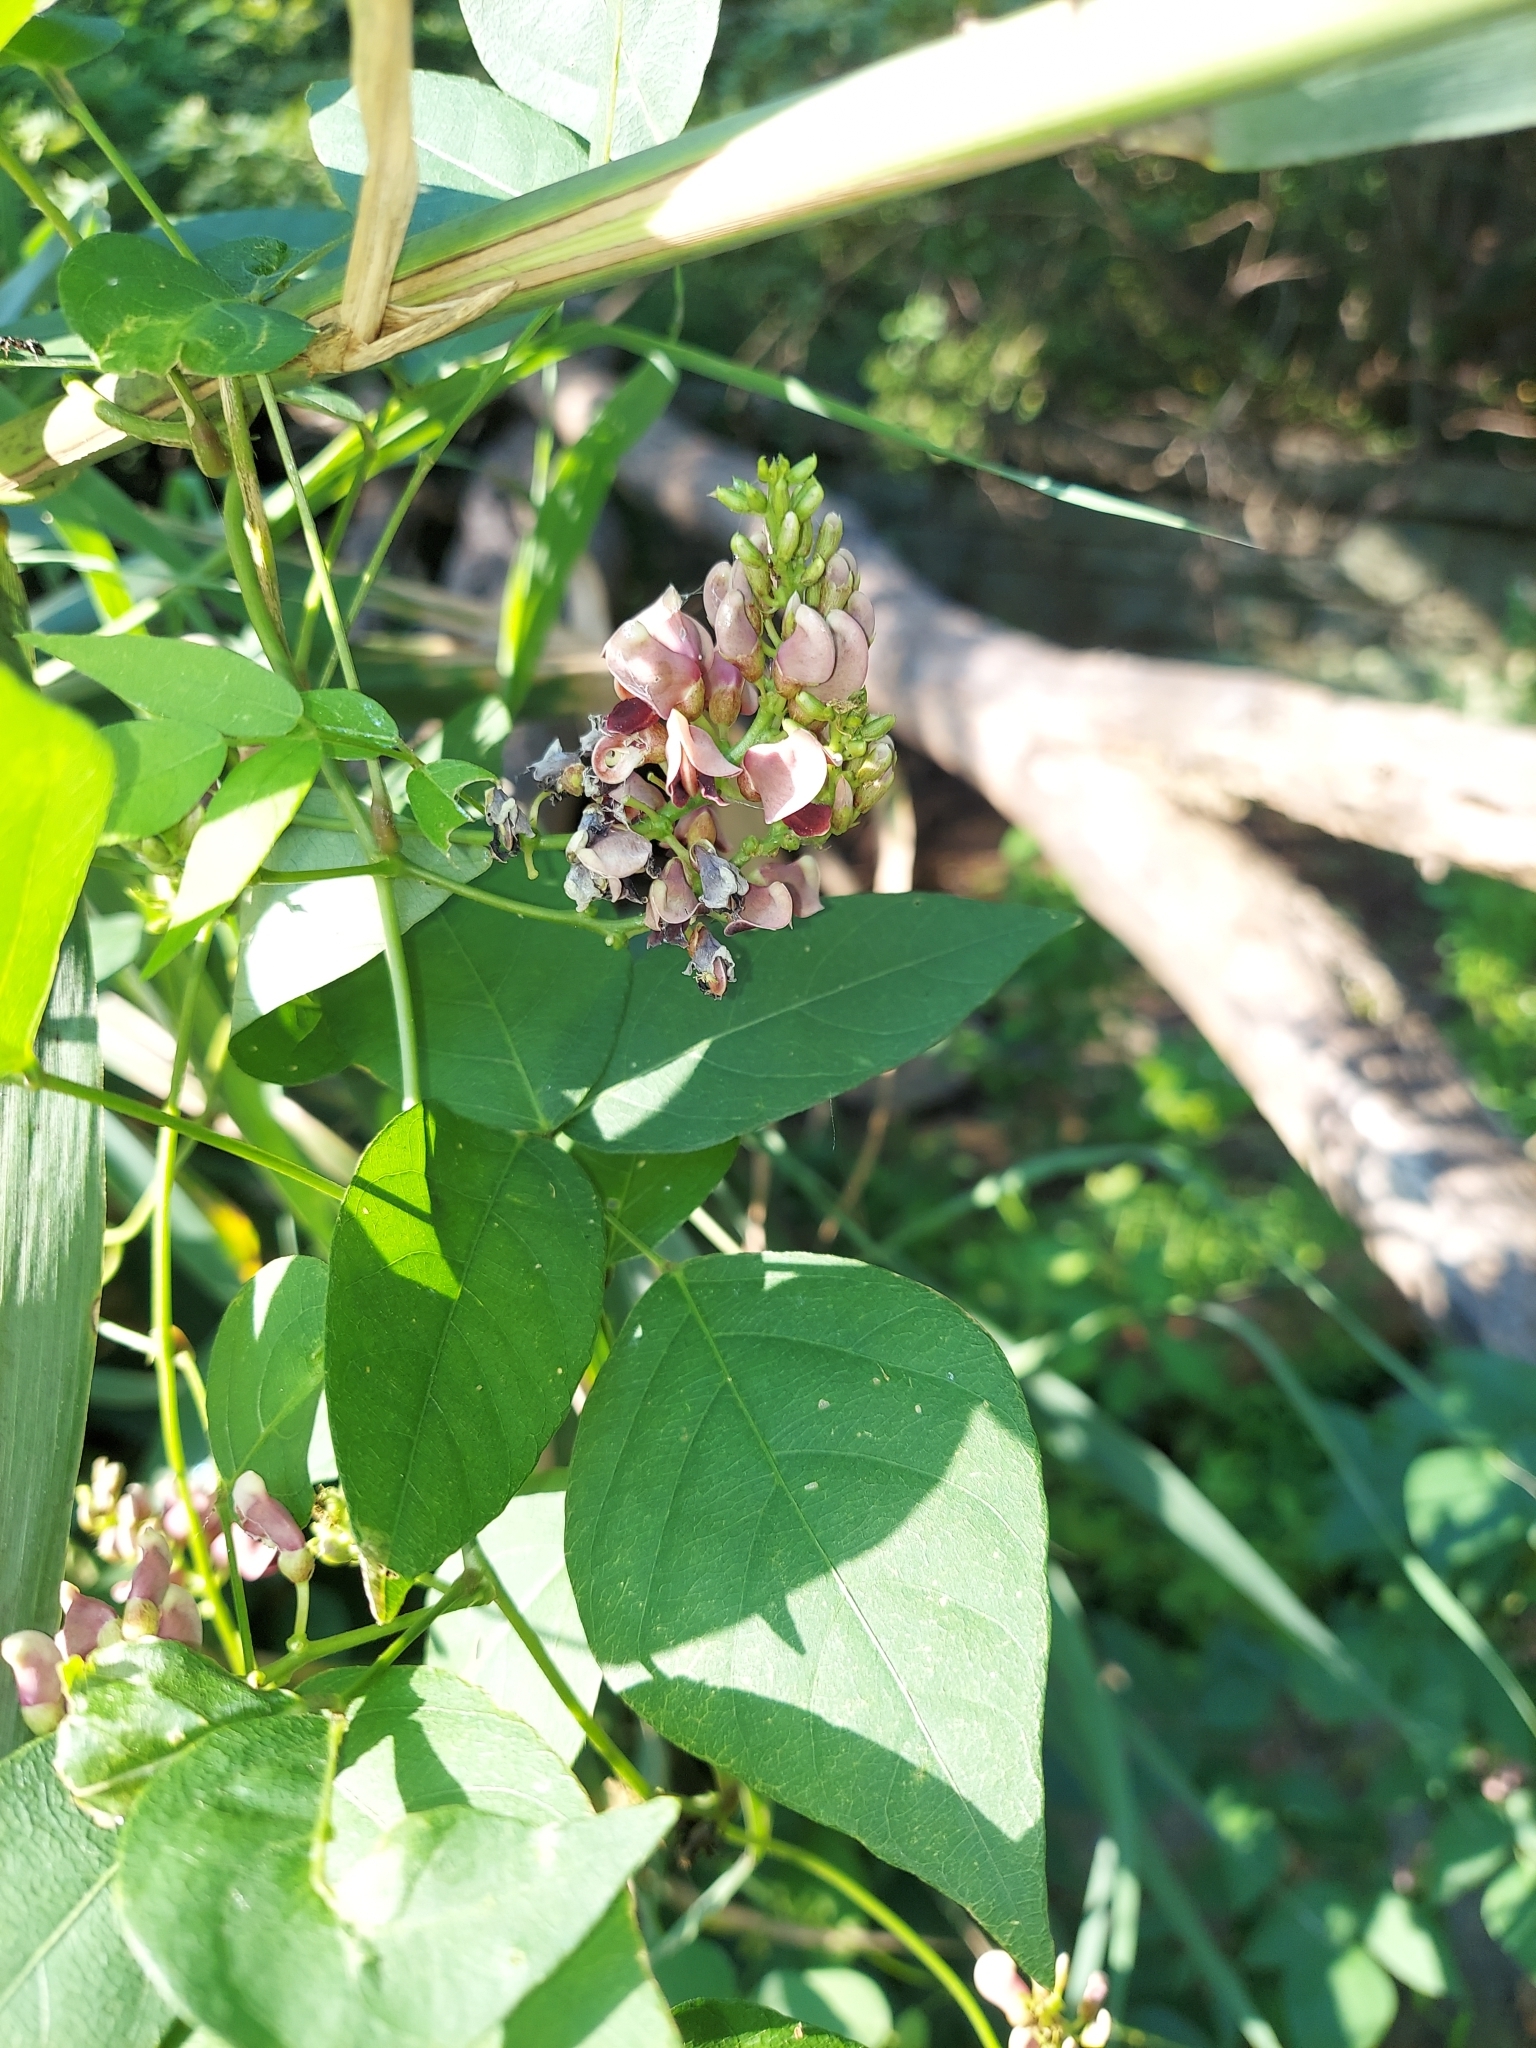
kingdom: Plantae
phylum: Tracheophyta
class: Magnoliopsida
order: Fabales
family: Fabaceae
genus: Apios
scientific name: Apios americana
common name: American potato-bean
